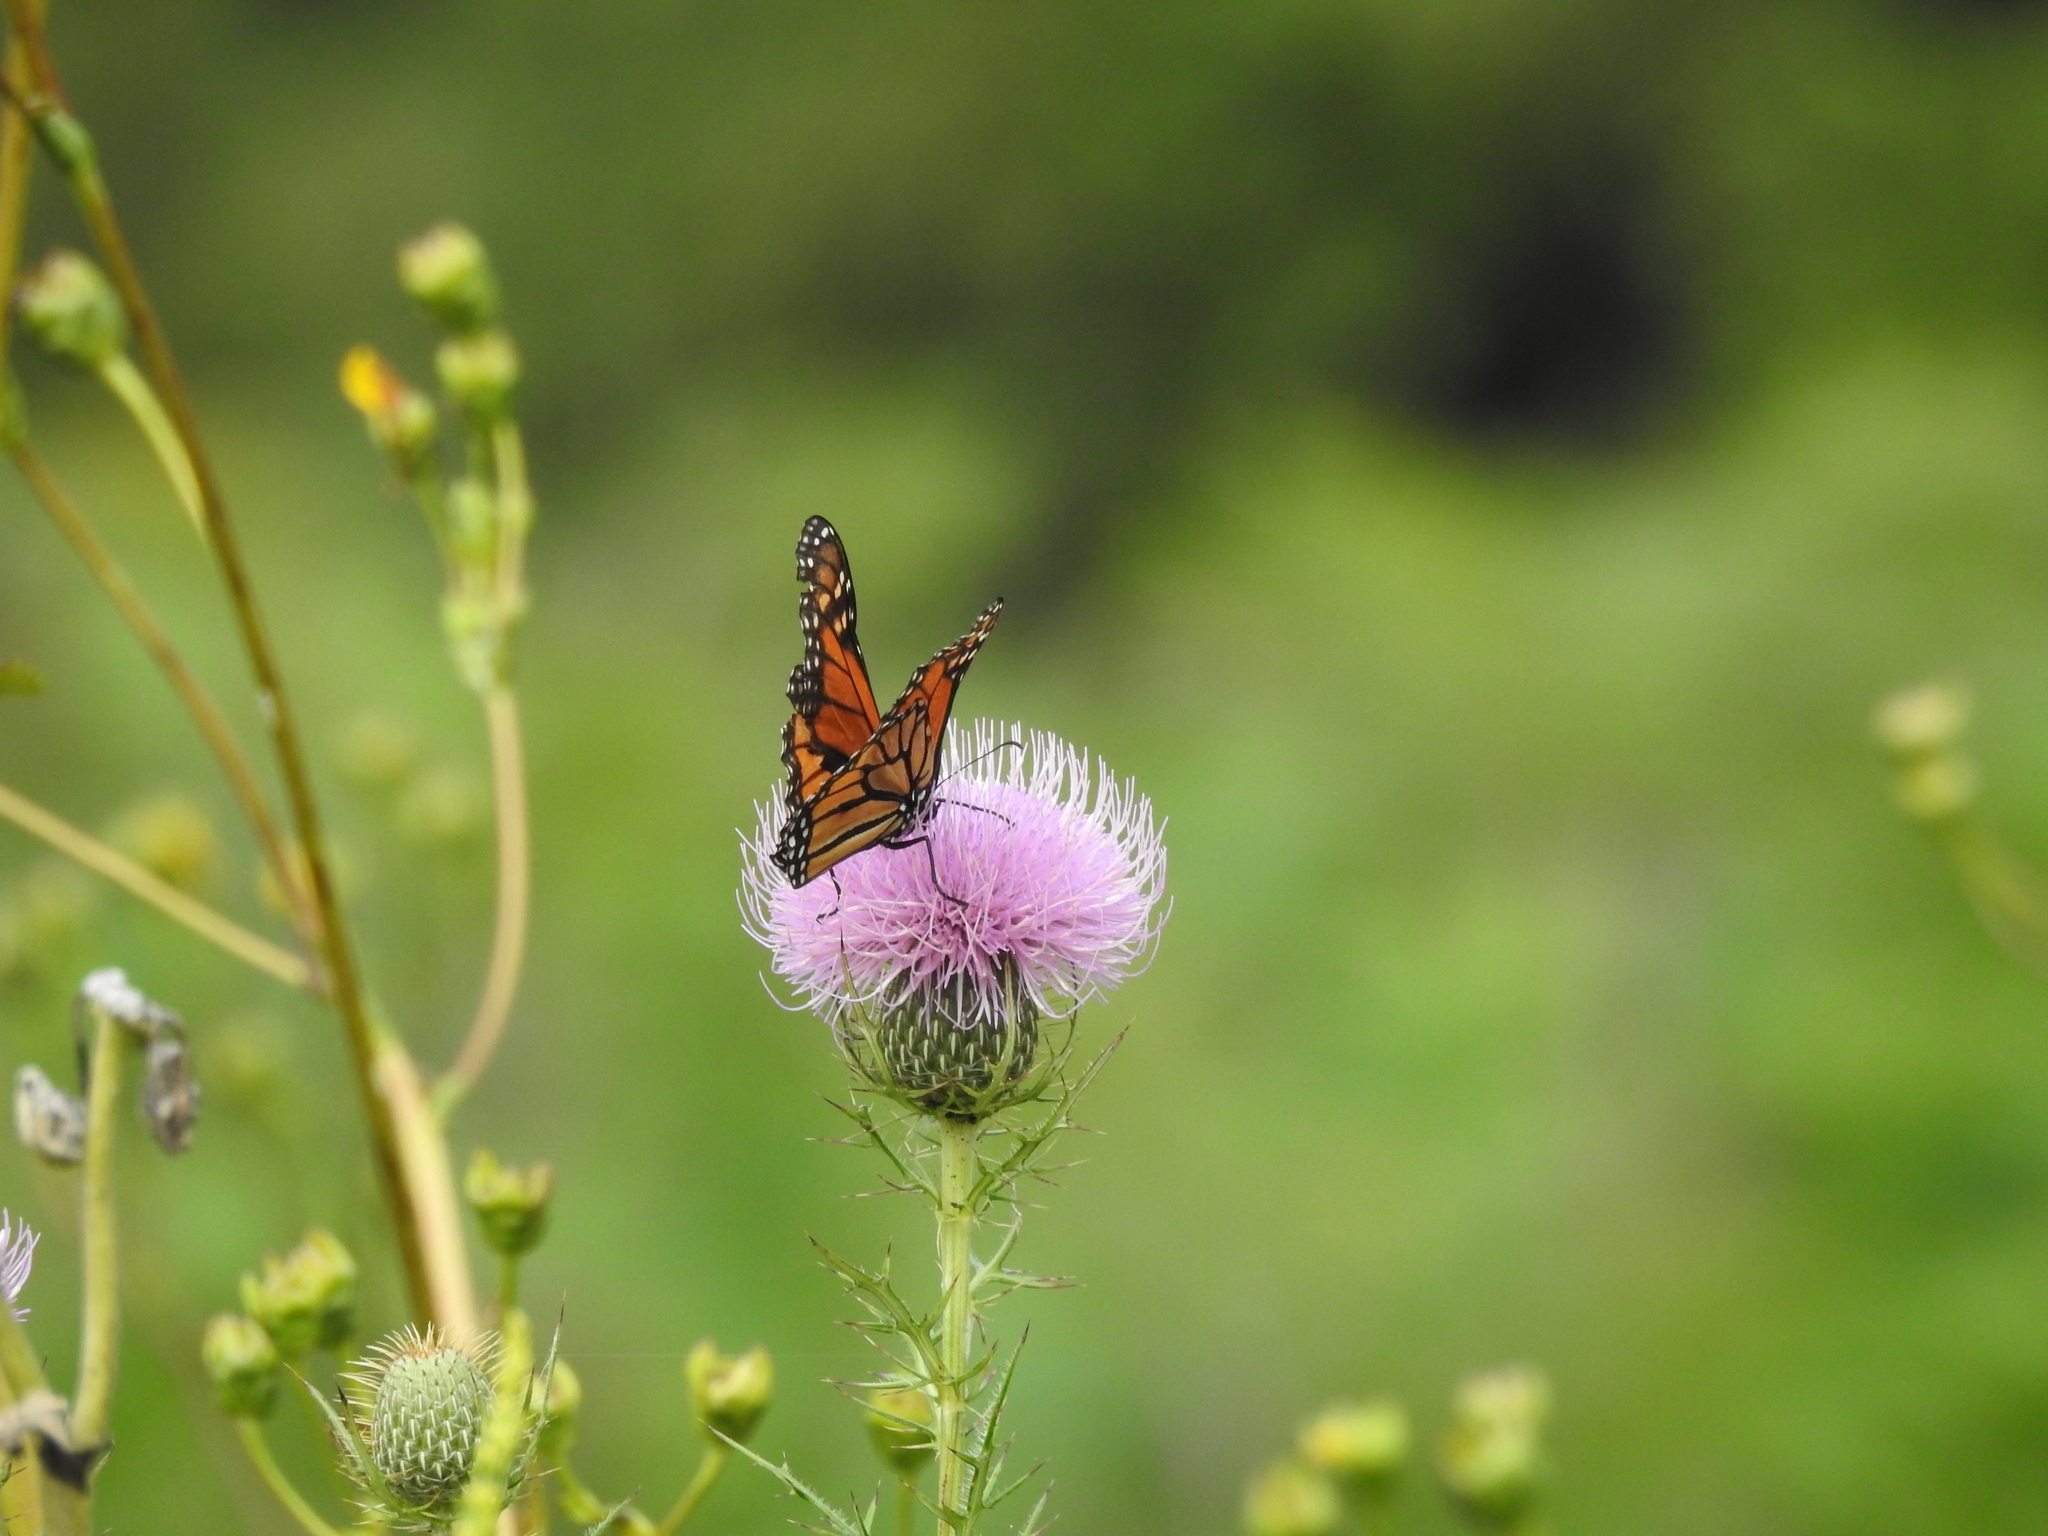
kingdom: Animalia
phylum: Arthropoda
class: Insecta
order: Lepidoptera
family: Nymphalidae
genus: Danaus
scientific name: Danaus plexippus
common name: Monarch
